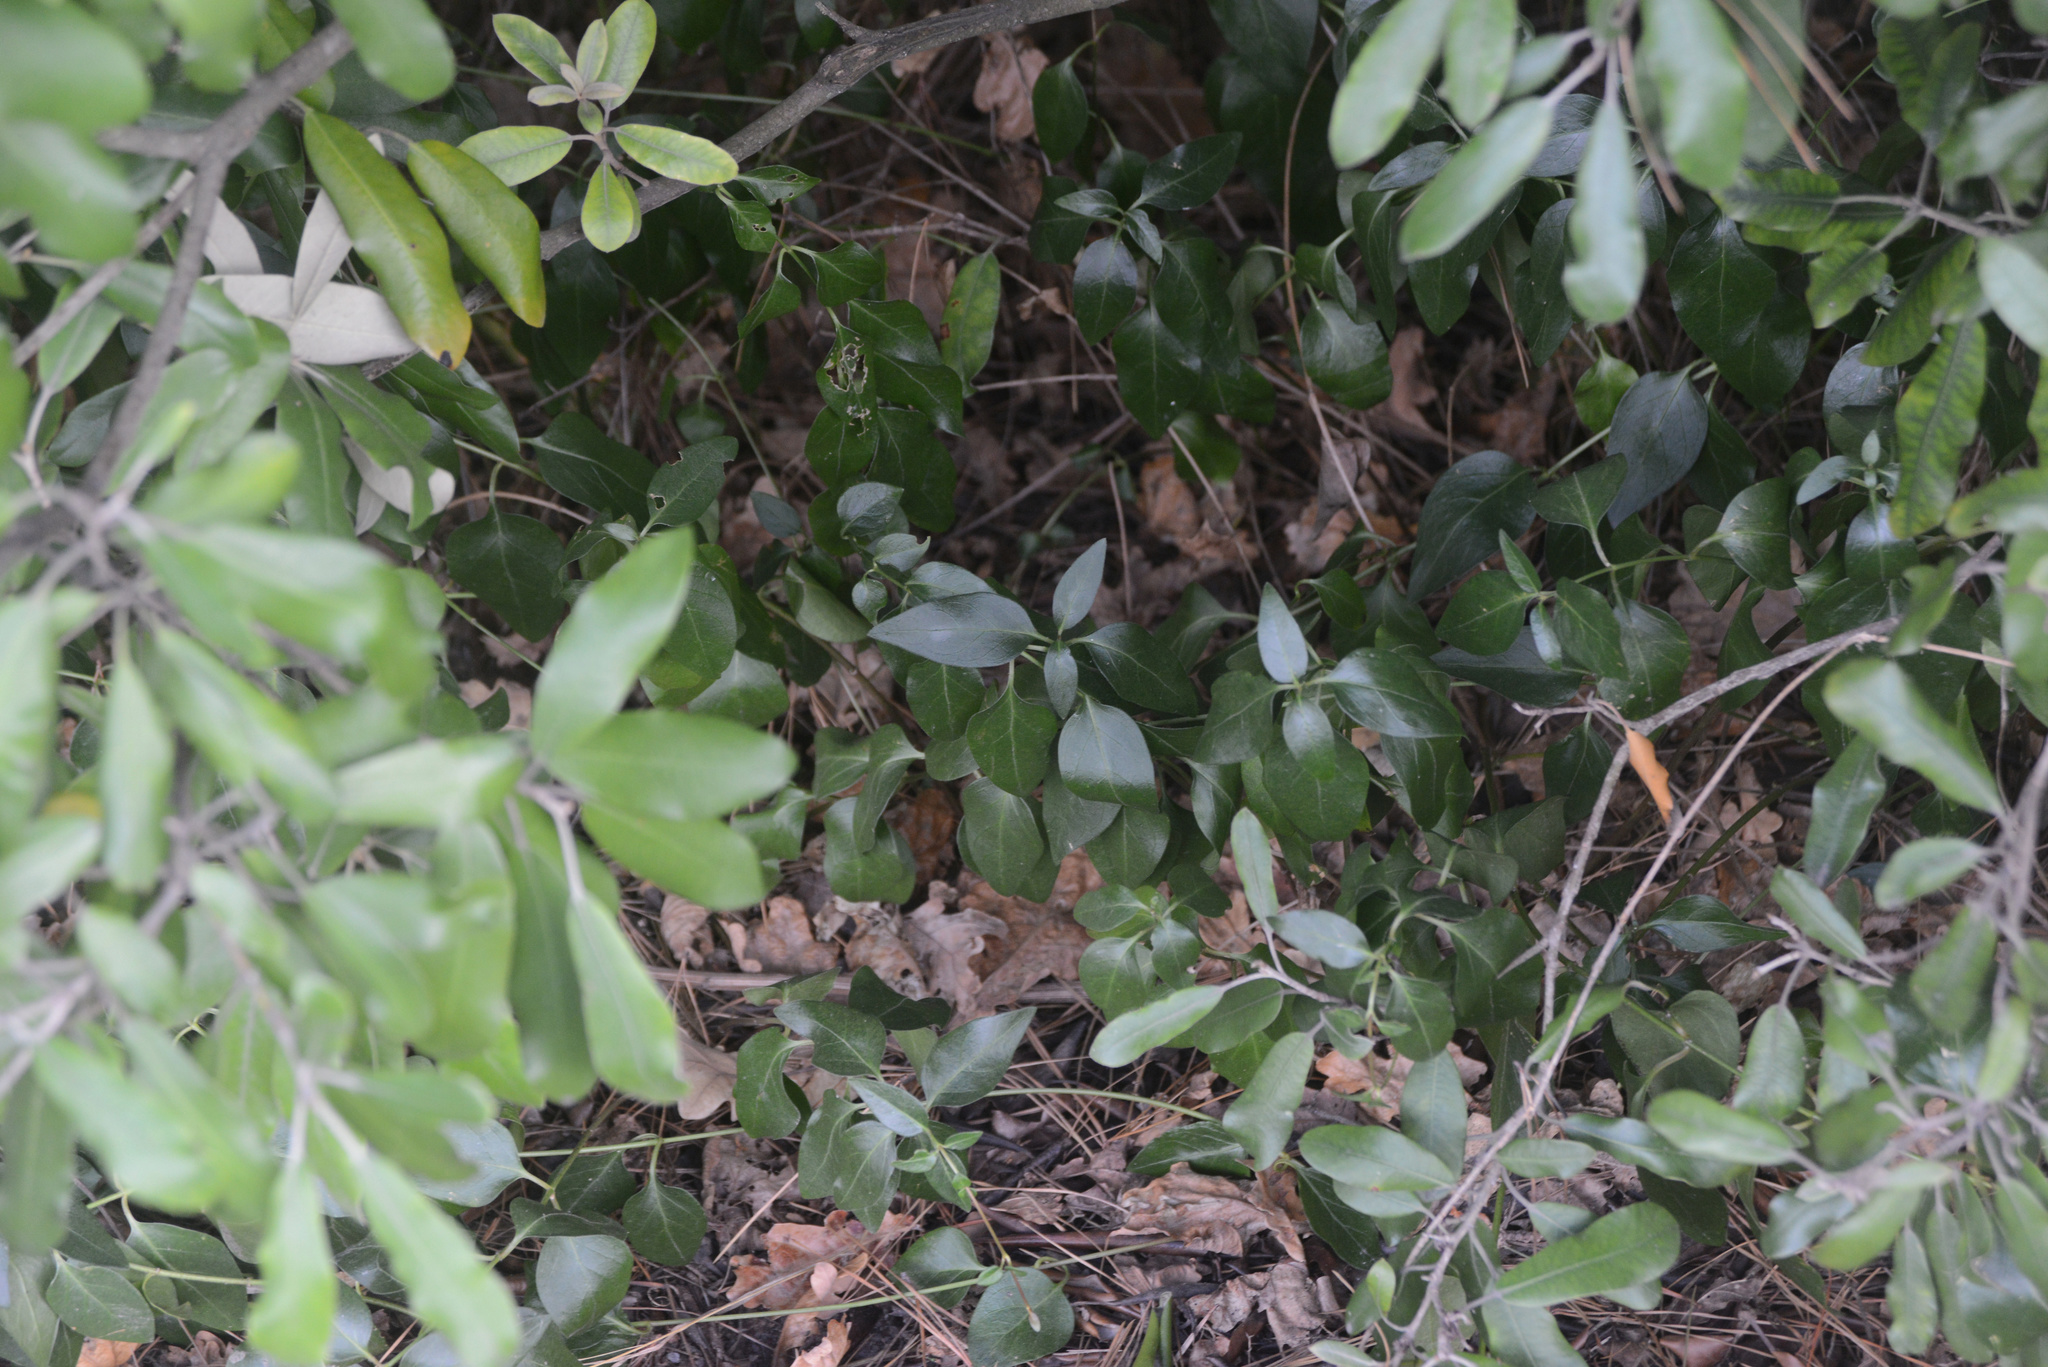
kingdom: Plantae
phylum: Tracheophyta
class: Magnoliopsida
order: Gentianales
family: Apocynaceae
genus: Vinca
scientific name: Vinca major
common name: Greater periwinkle
